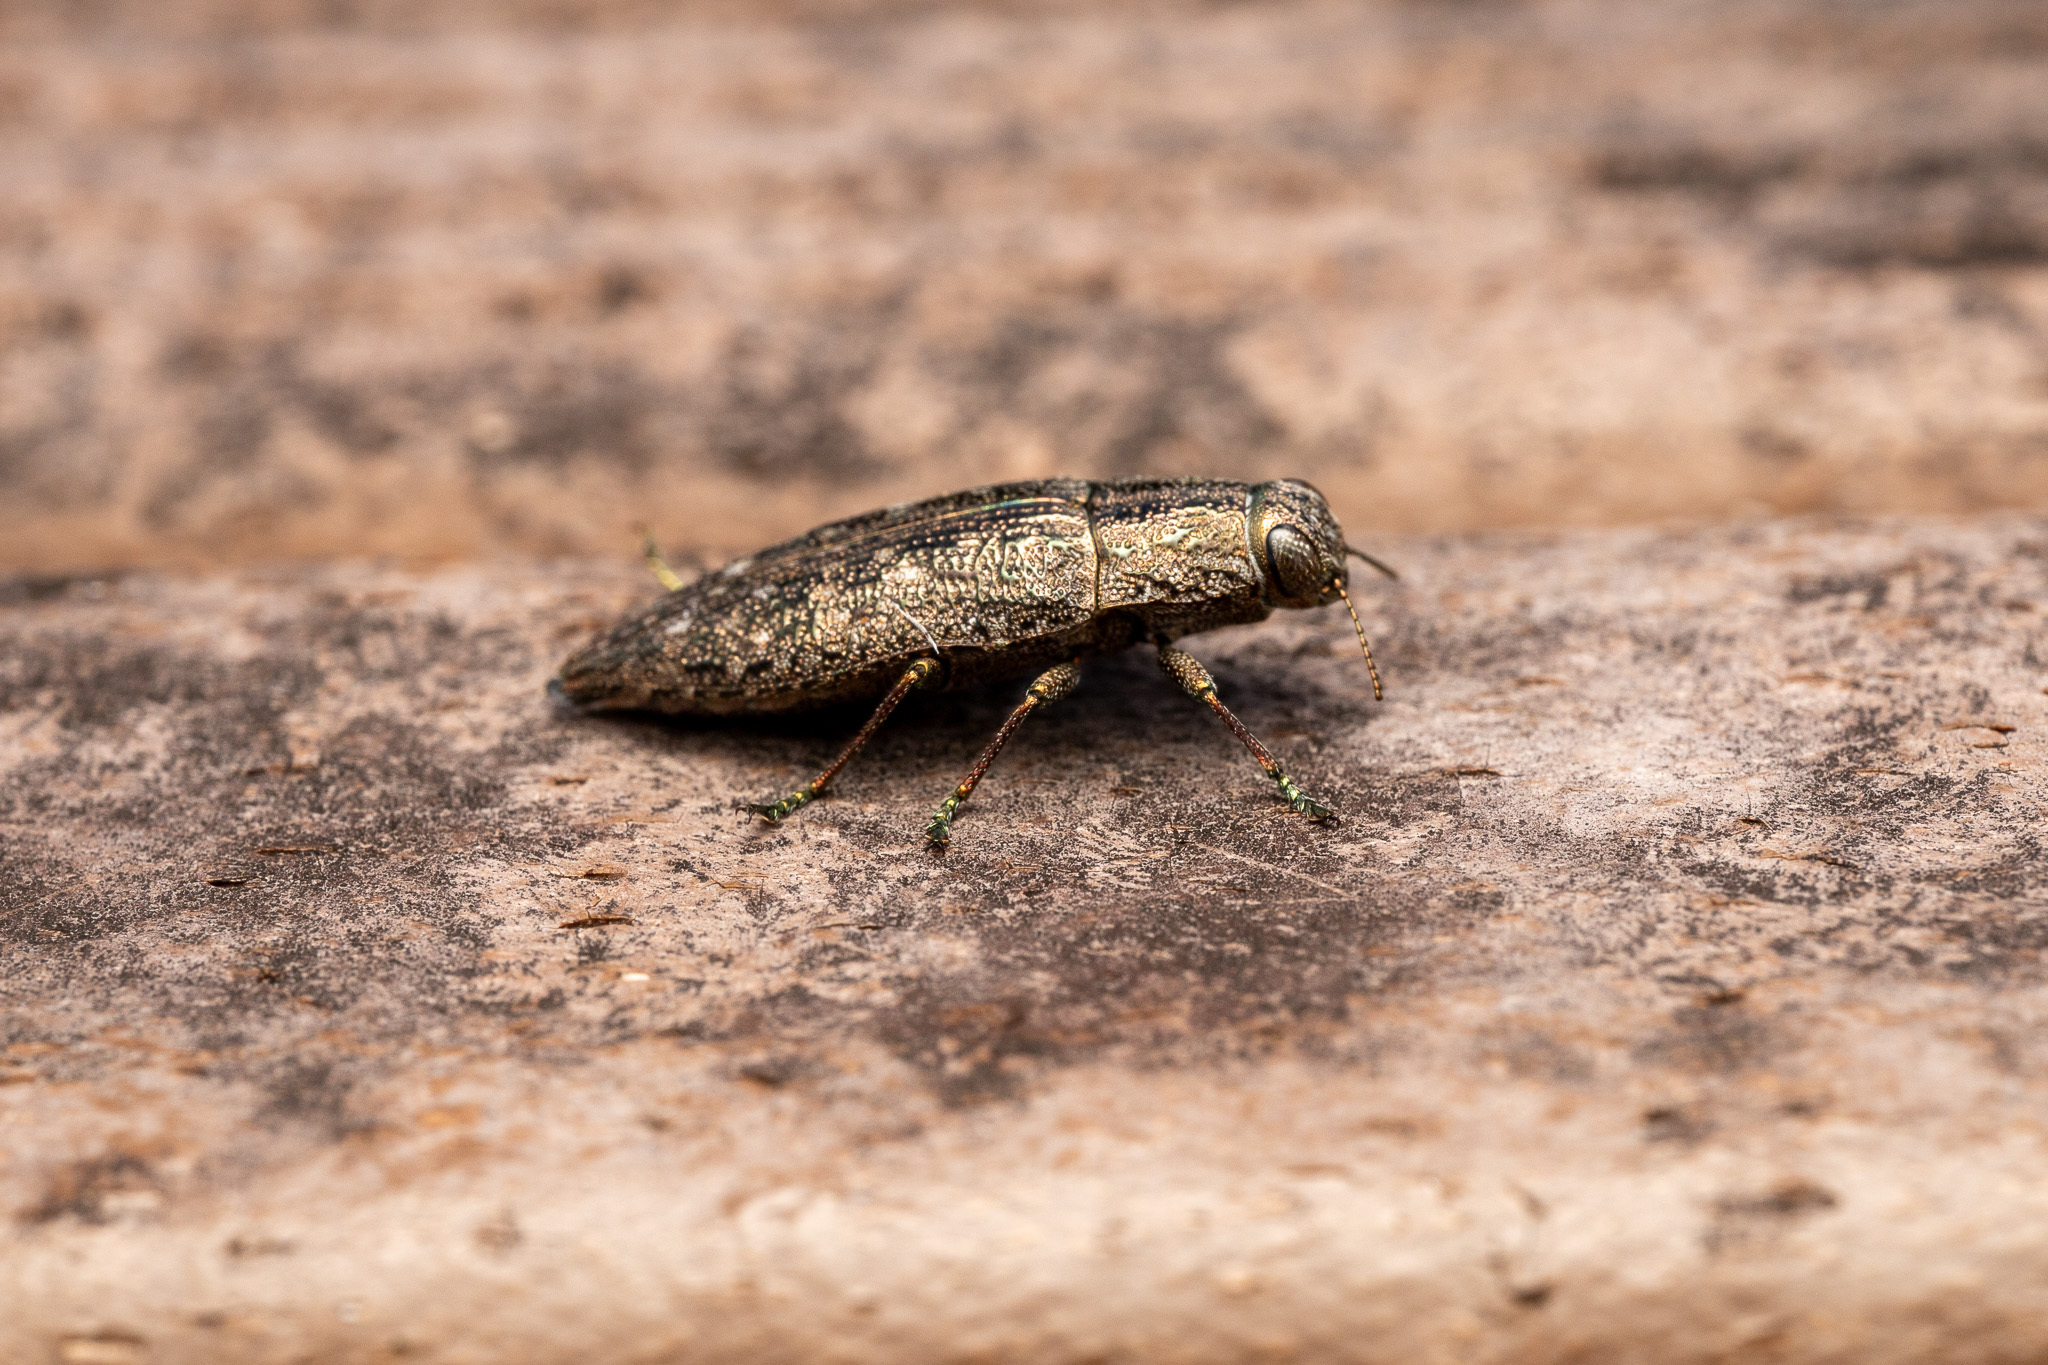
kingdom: Animalia
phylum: Arthropoda
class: Insecta
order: Coleoptera
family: Buprestidae
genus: Dicerca
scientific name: Dicerca obscura
